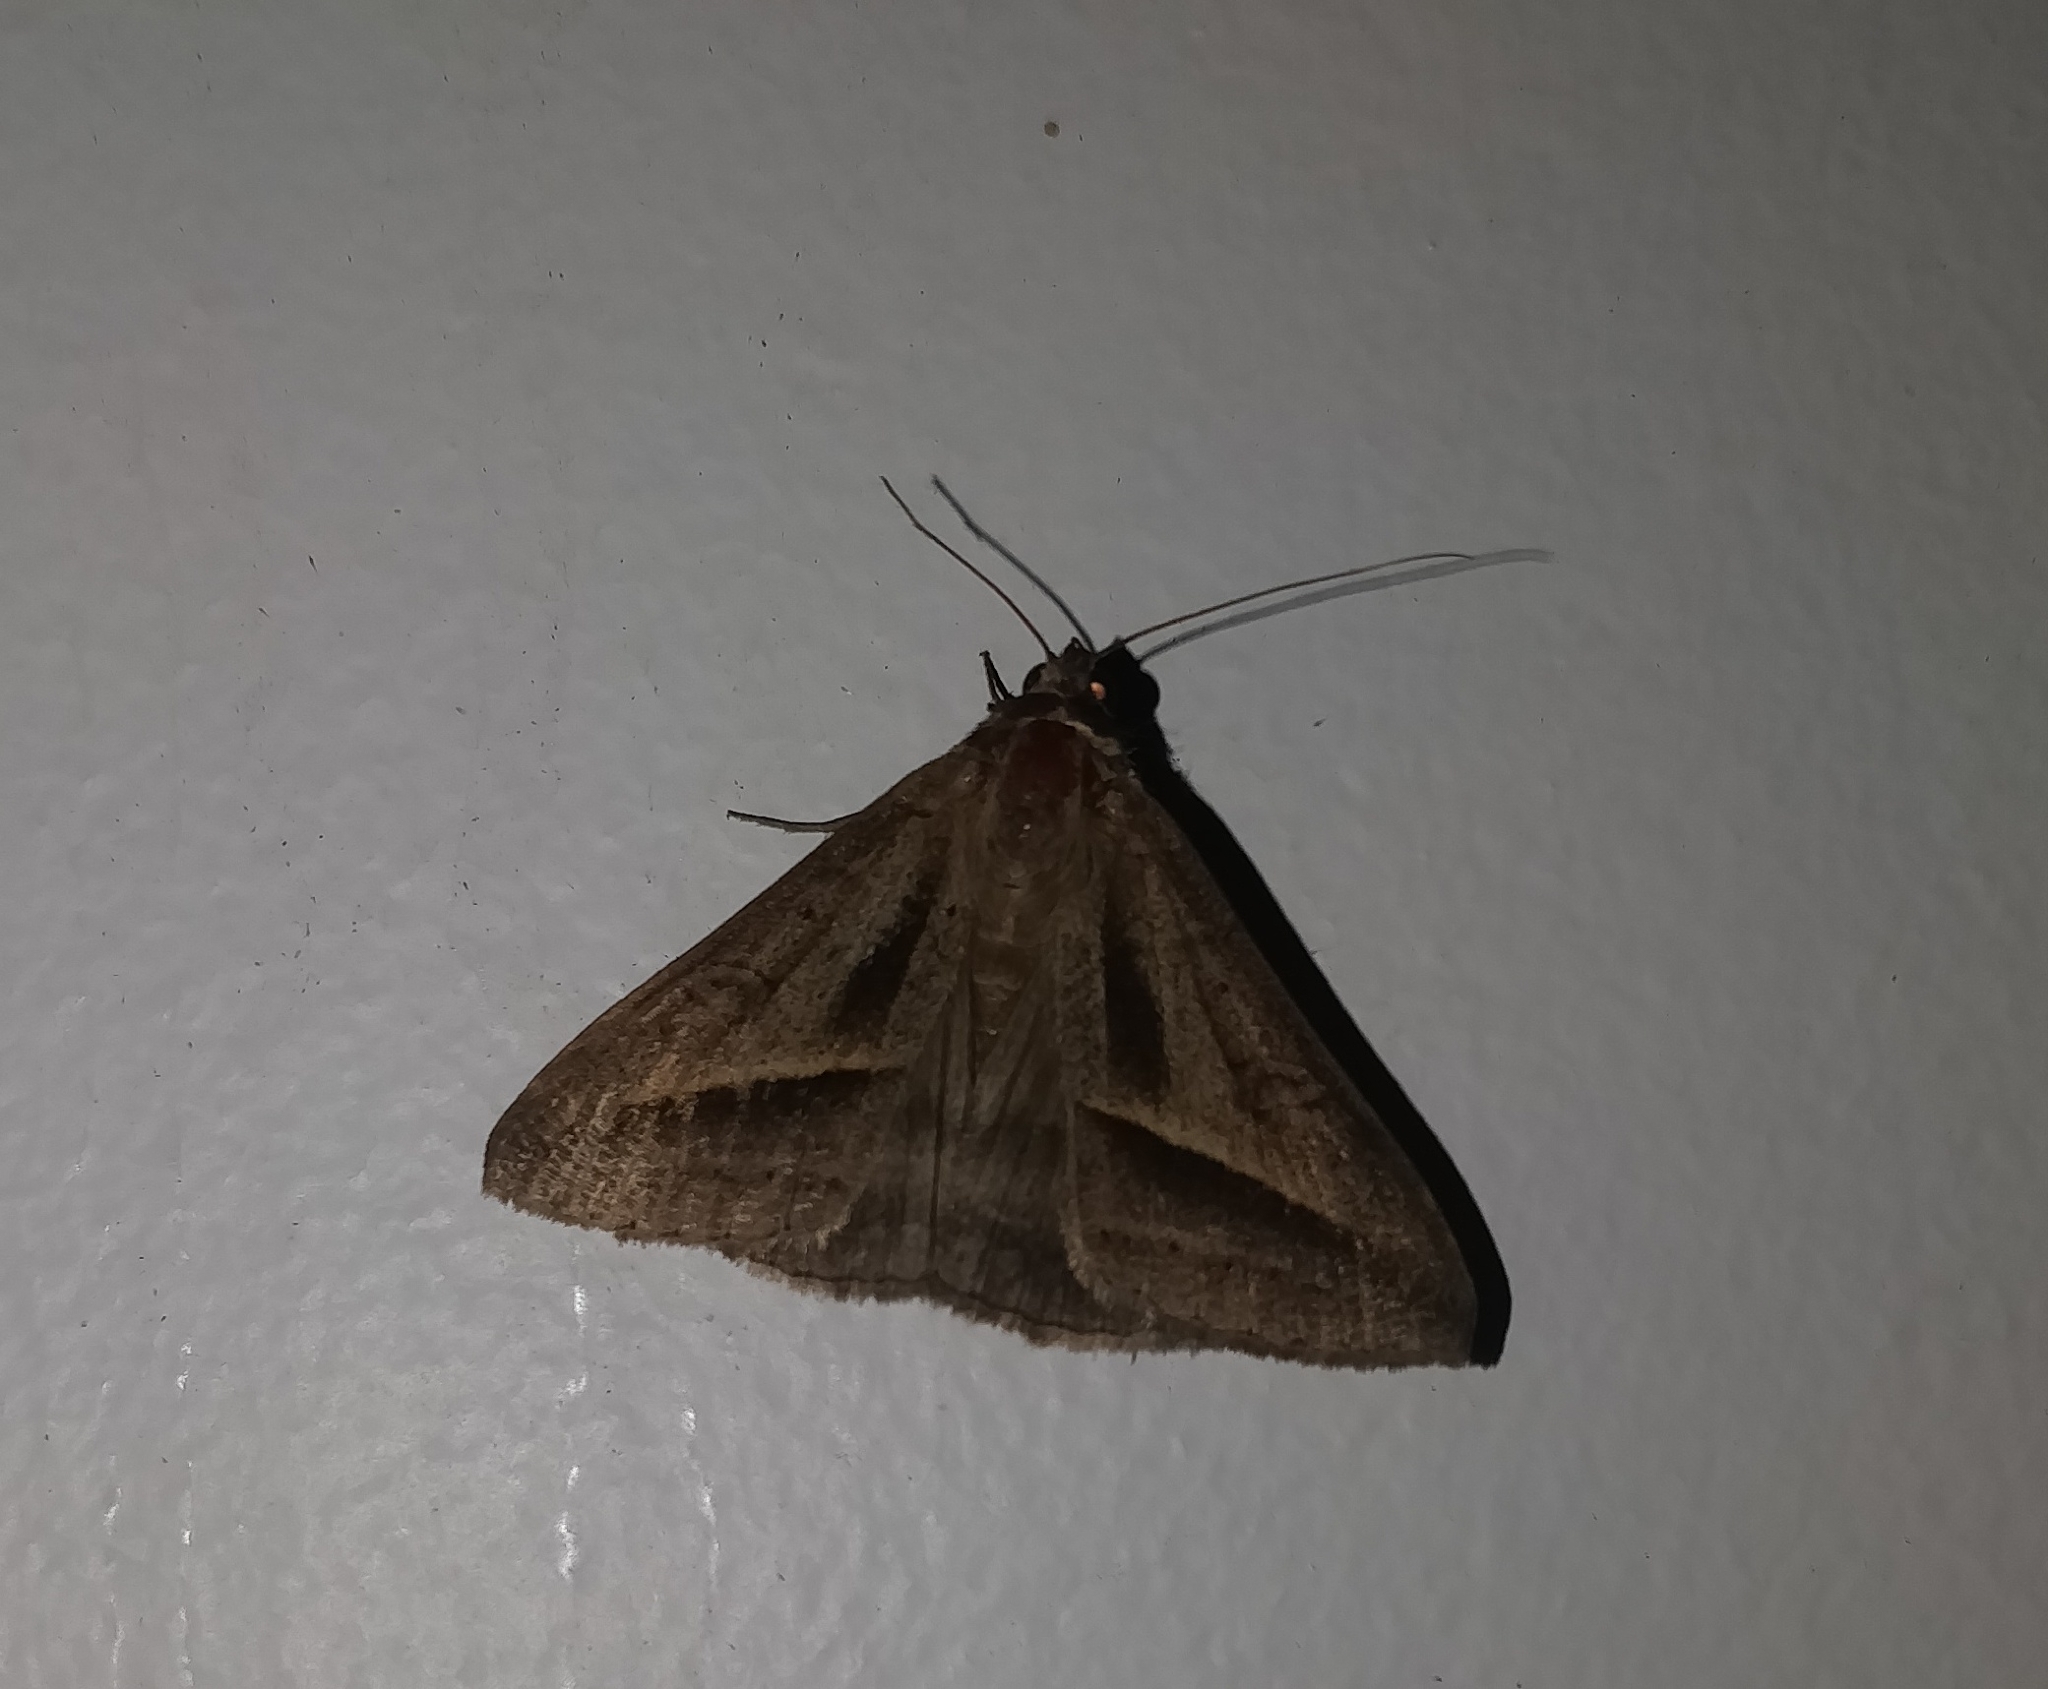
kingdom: Animalia
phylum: Arthropoda
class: Insecta
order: Lepidoptera
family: Erebidae
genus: Mocis
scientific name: Mocis frugalis
